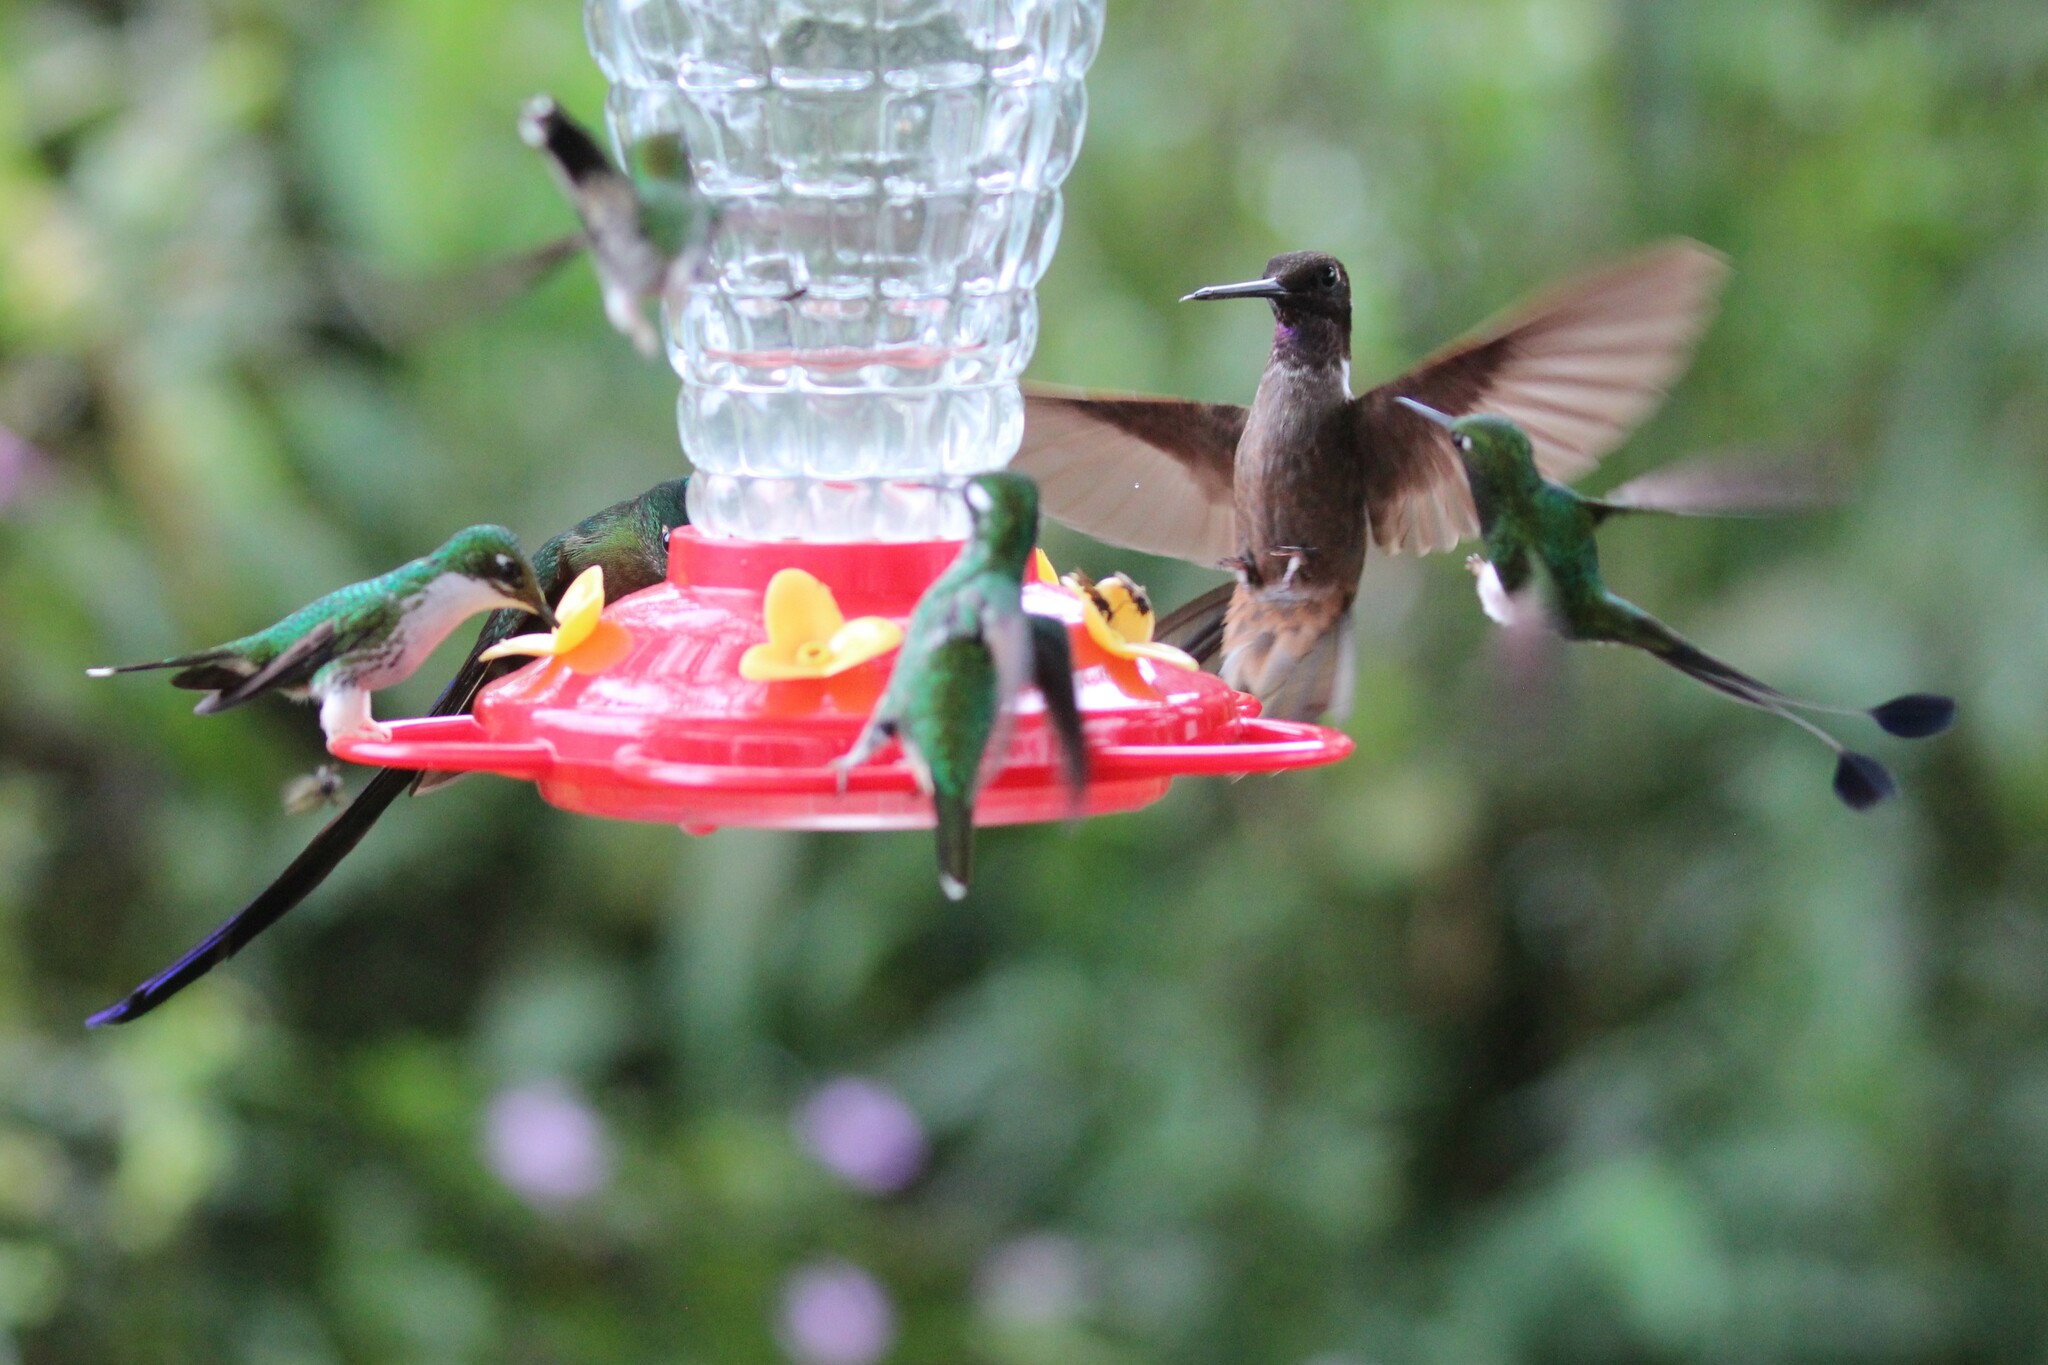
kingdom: Animalia
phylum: Chordata
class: Aves
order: Apodiformes
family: Trochilidae
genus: Coeligena
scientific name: Coeligena wilsoni
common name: Brown inca
